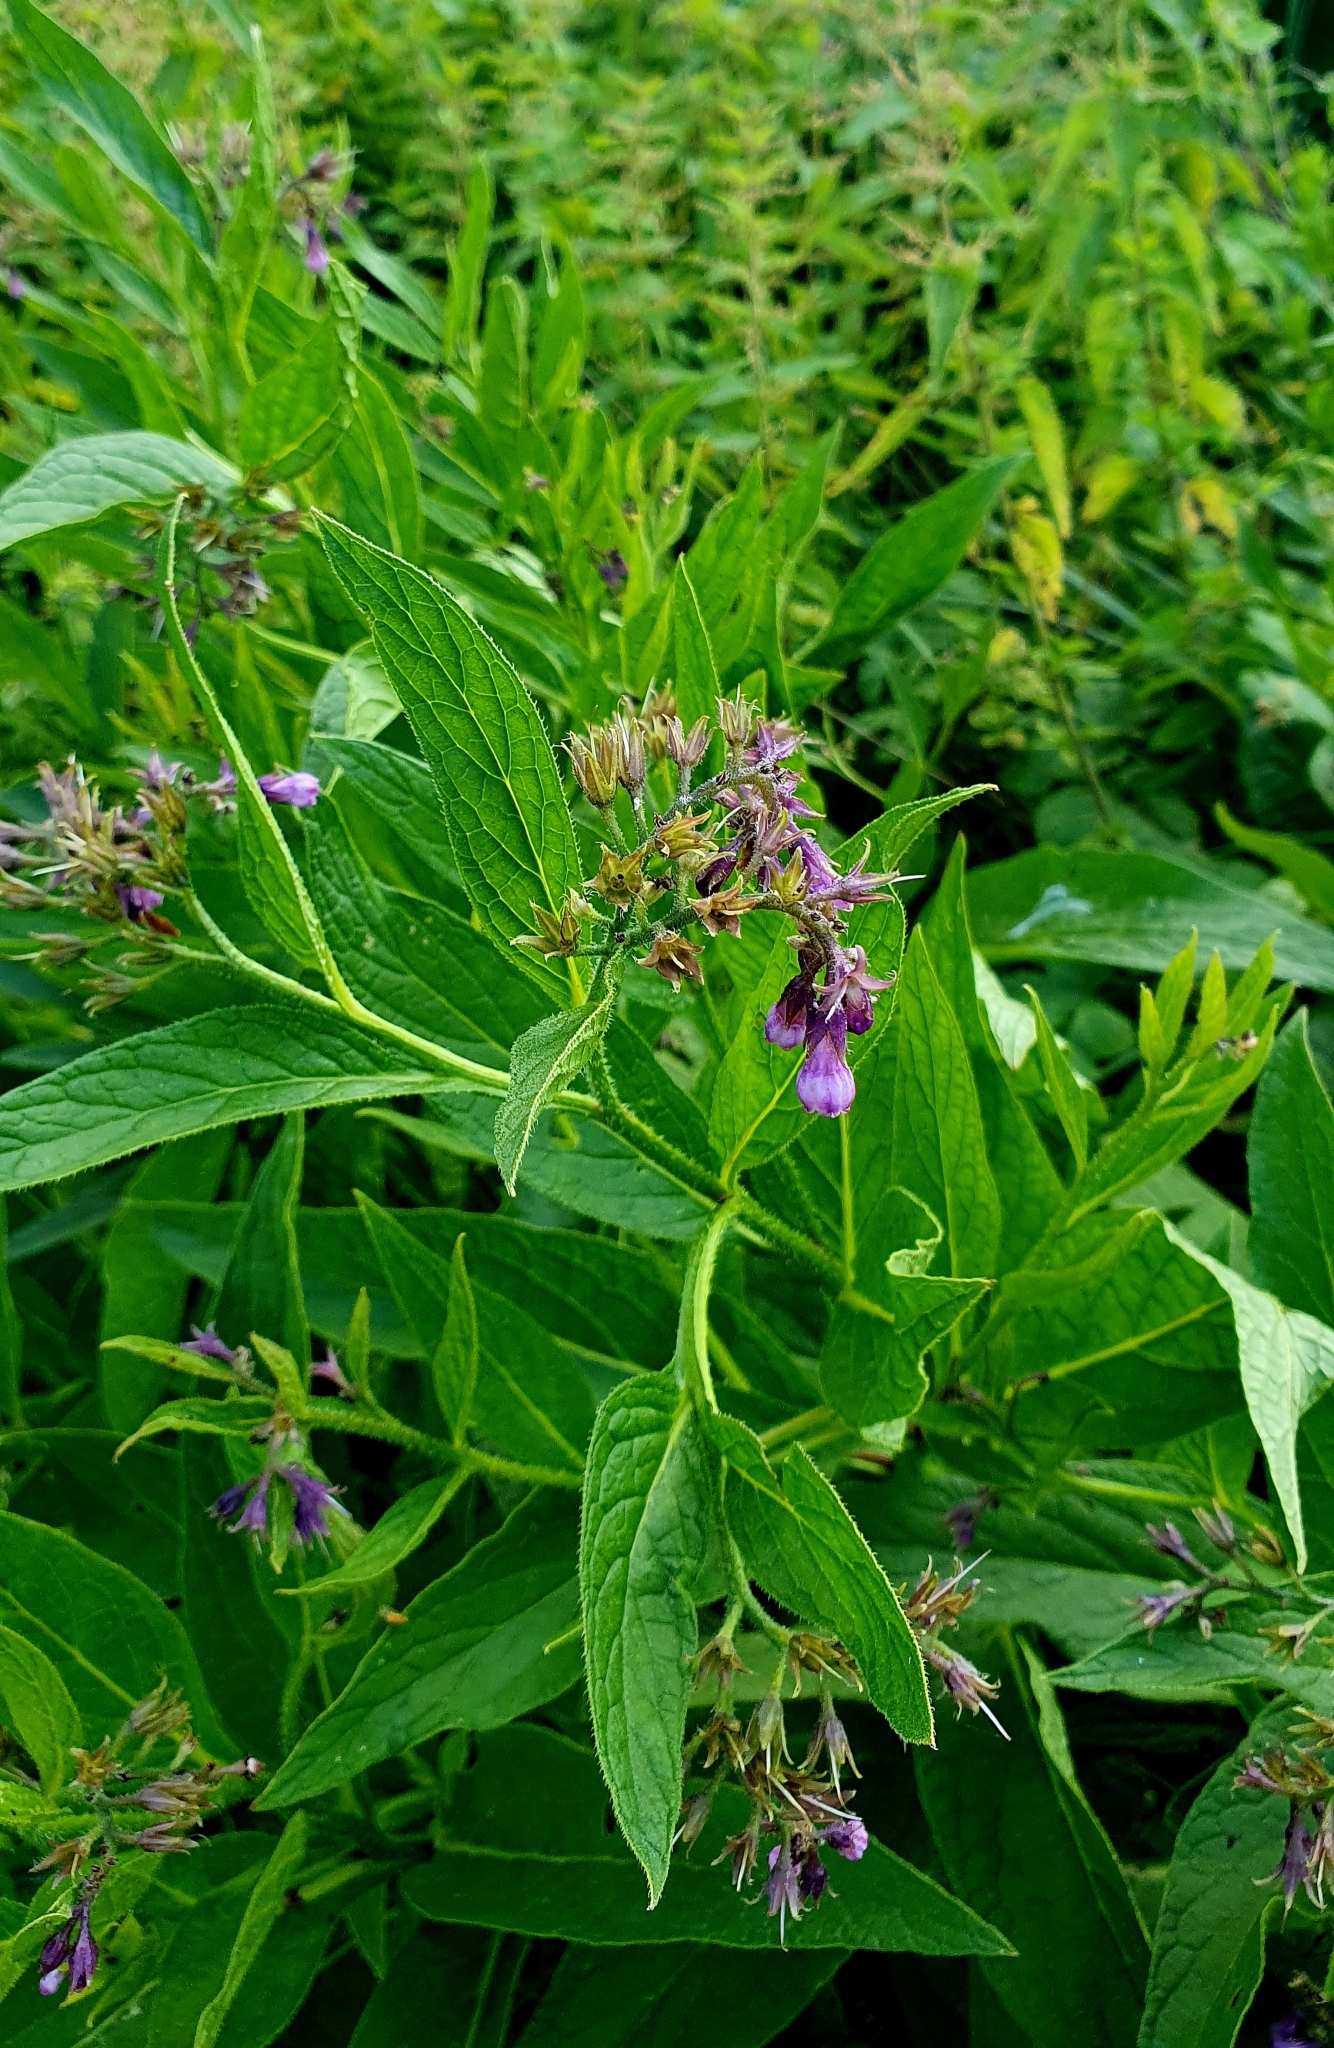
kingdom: Plantae
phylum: Tracheophyta
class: Magnoliopsida
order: Boraginales
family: Boraginaceae
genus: Symphytum
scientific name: Symphytum officinale
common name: Common comfrey
